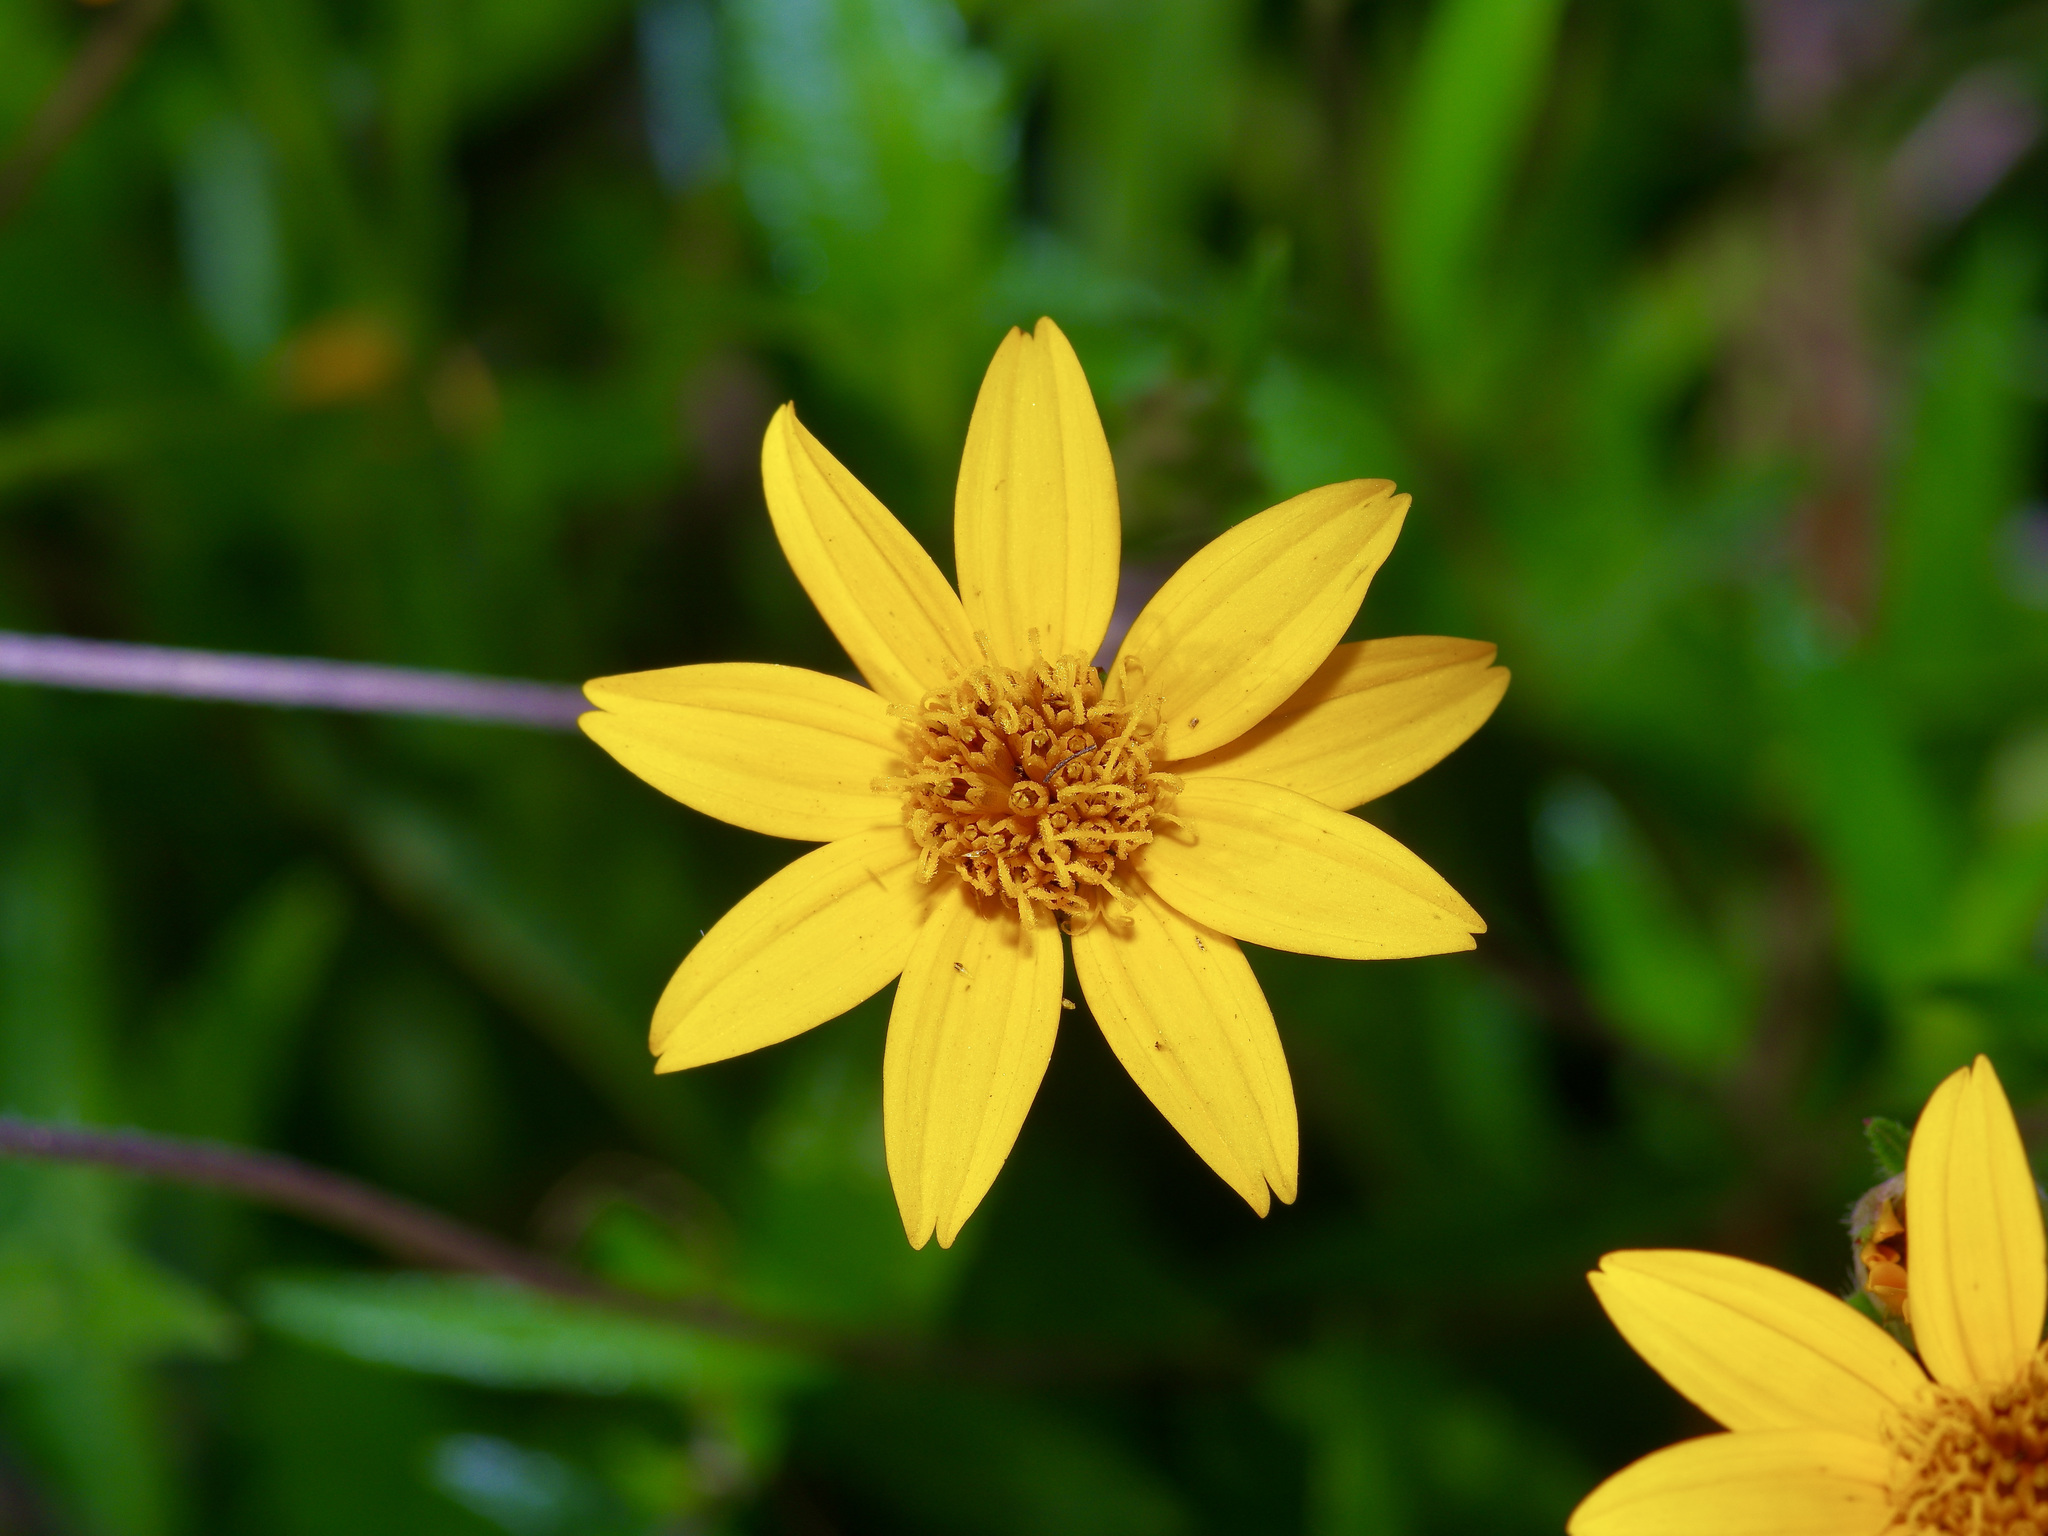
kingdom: Plantae
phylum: Tracheophyta
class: Magnoliopsida
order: Asterales
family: Asteraceae
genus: Wedelia
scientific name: Wedelia acapulcensis
